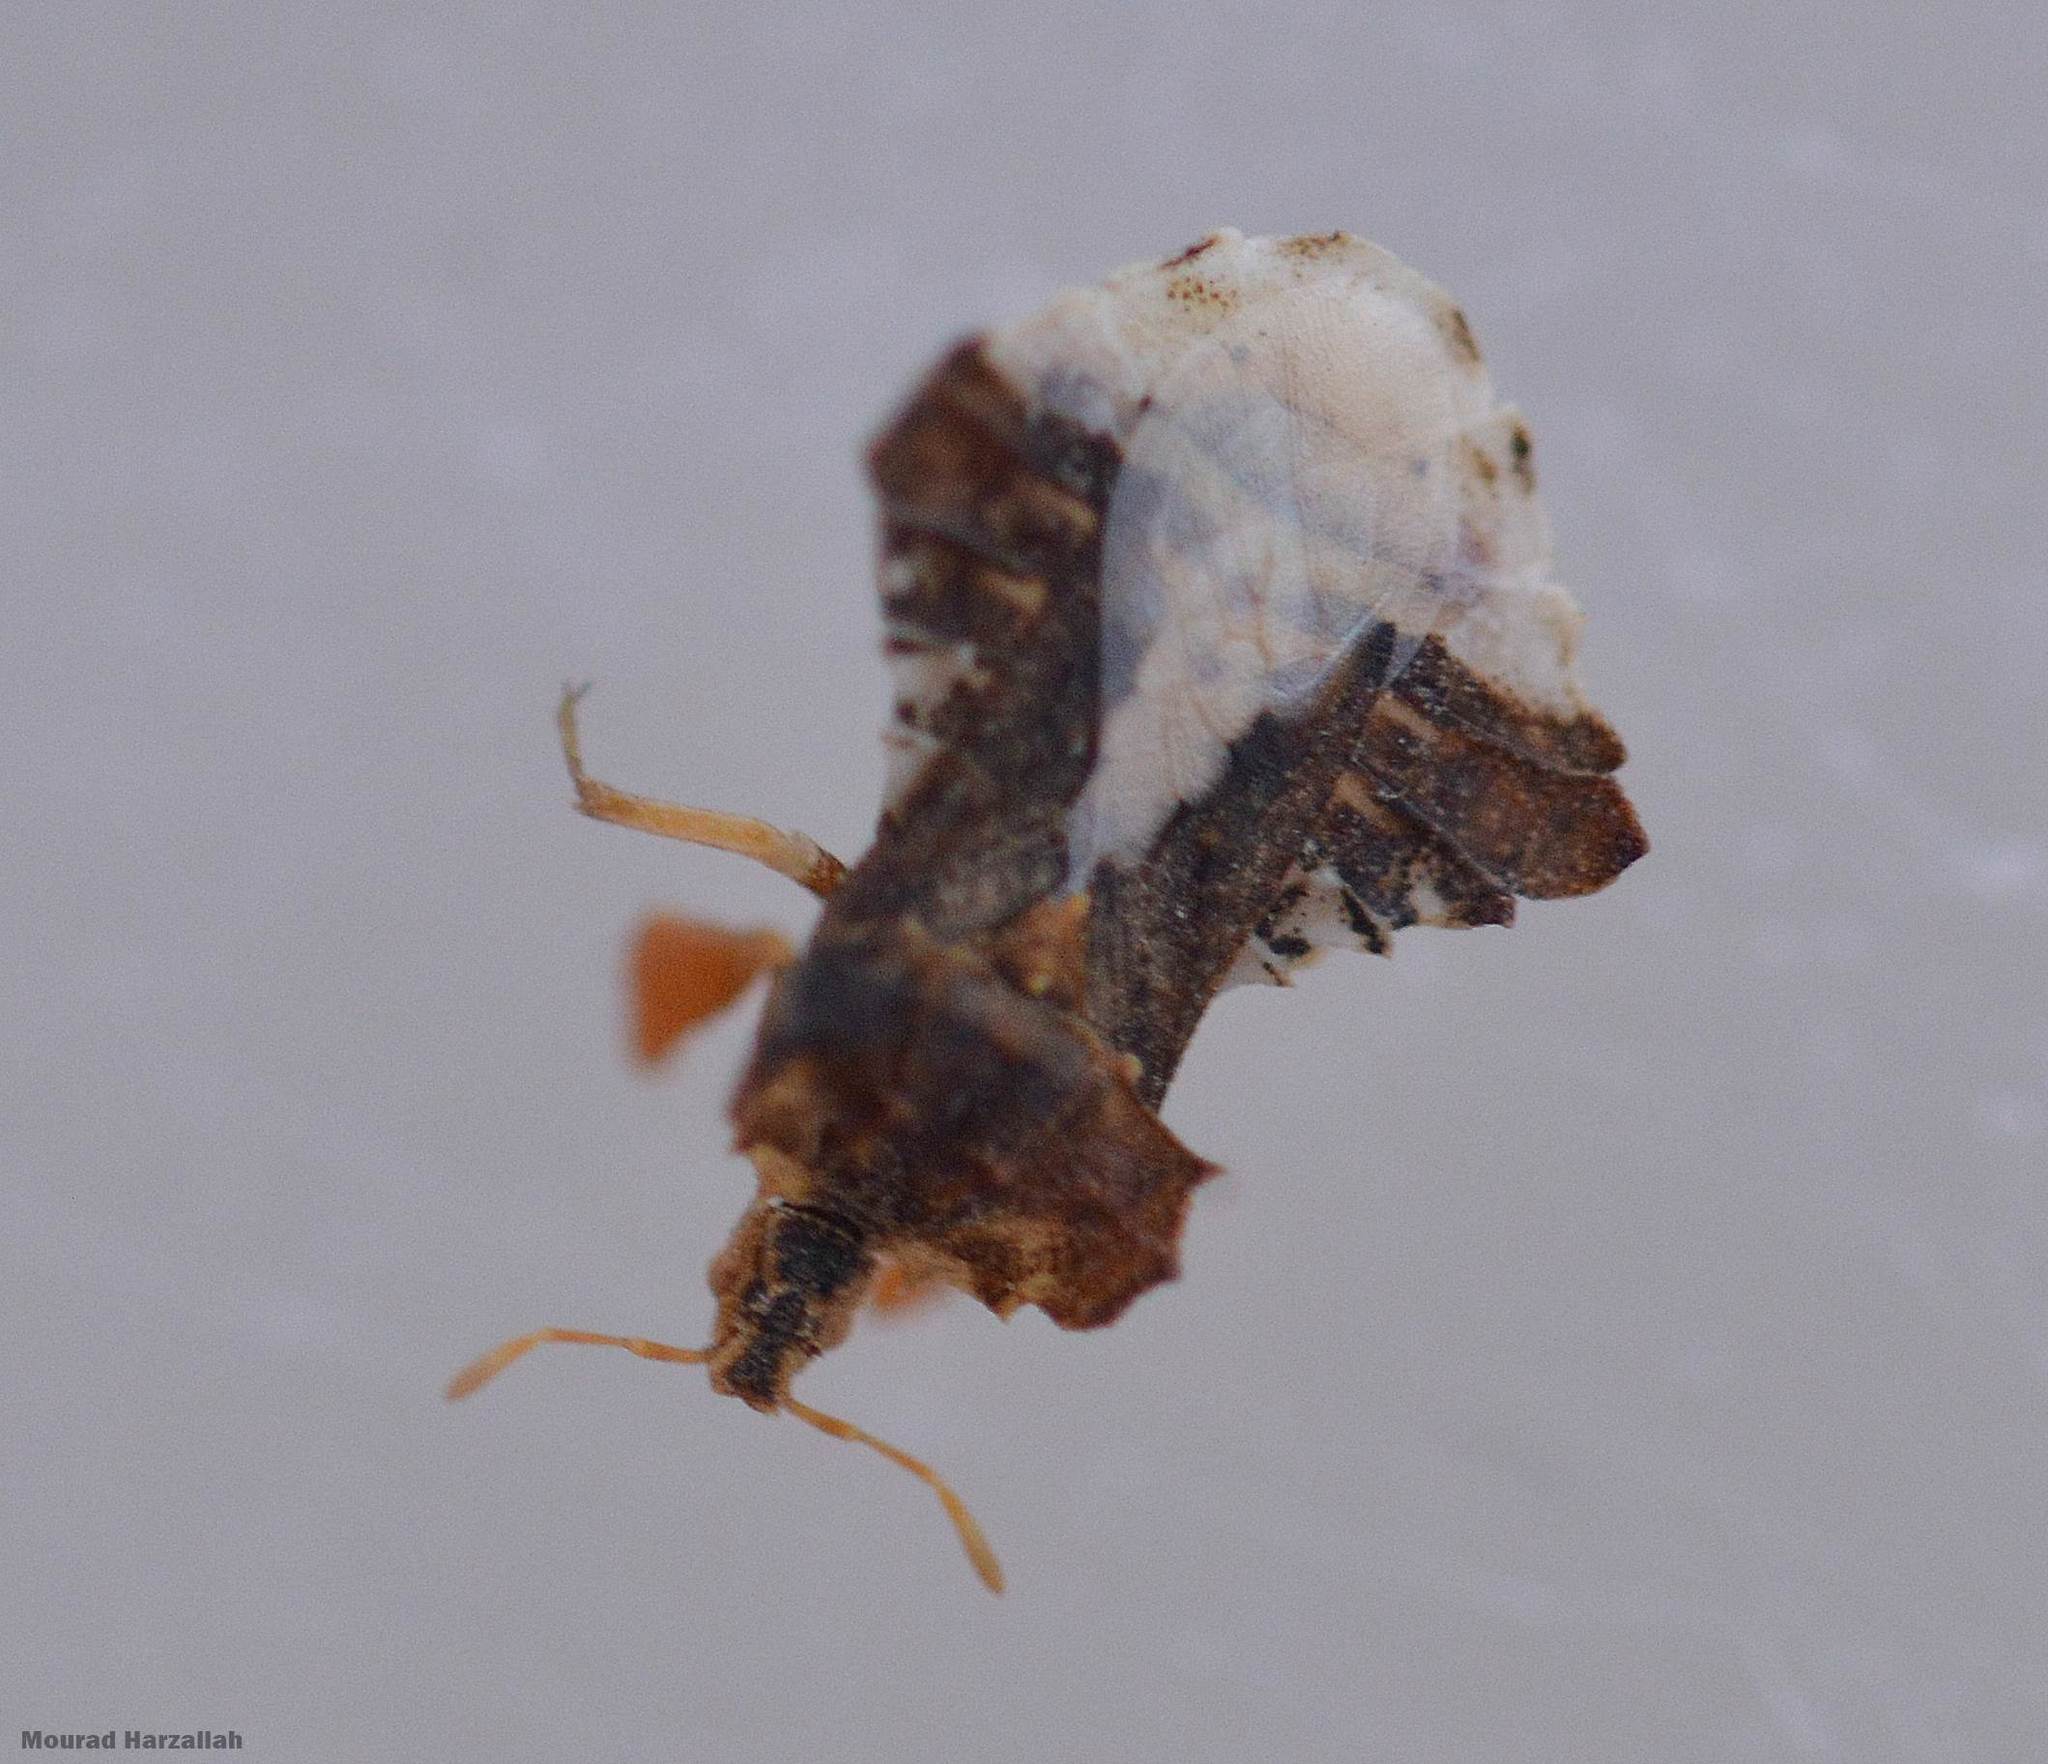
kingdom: Animalia
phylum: Arthropoda
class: Insecta
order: Hemiptera
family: Reduviidae
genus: Phymata
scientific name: Phymata monstrosa
